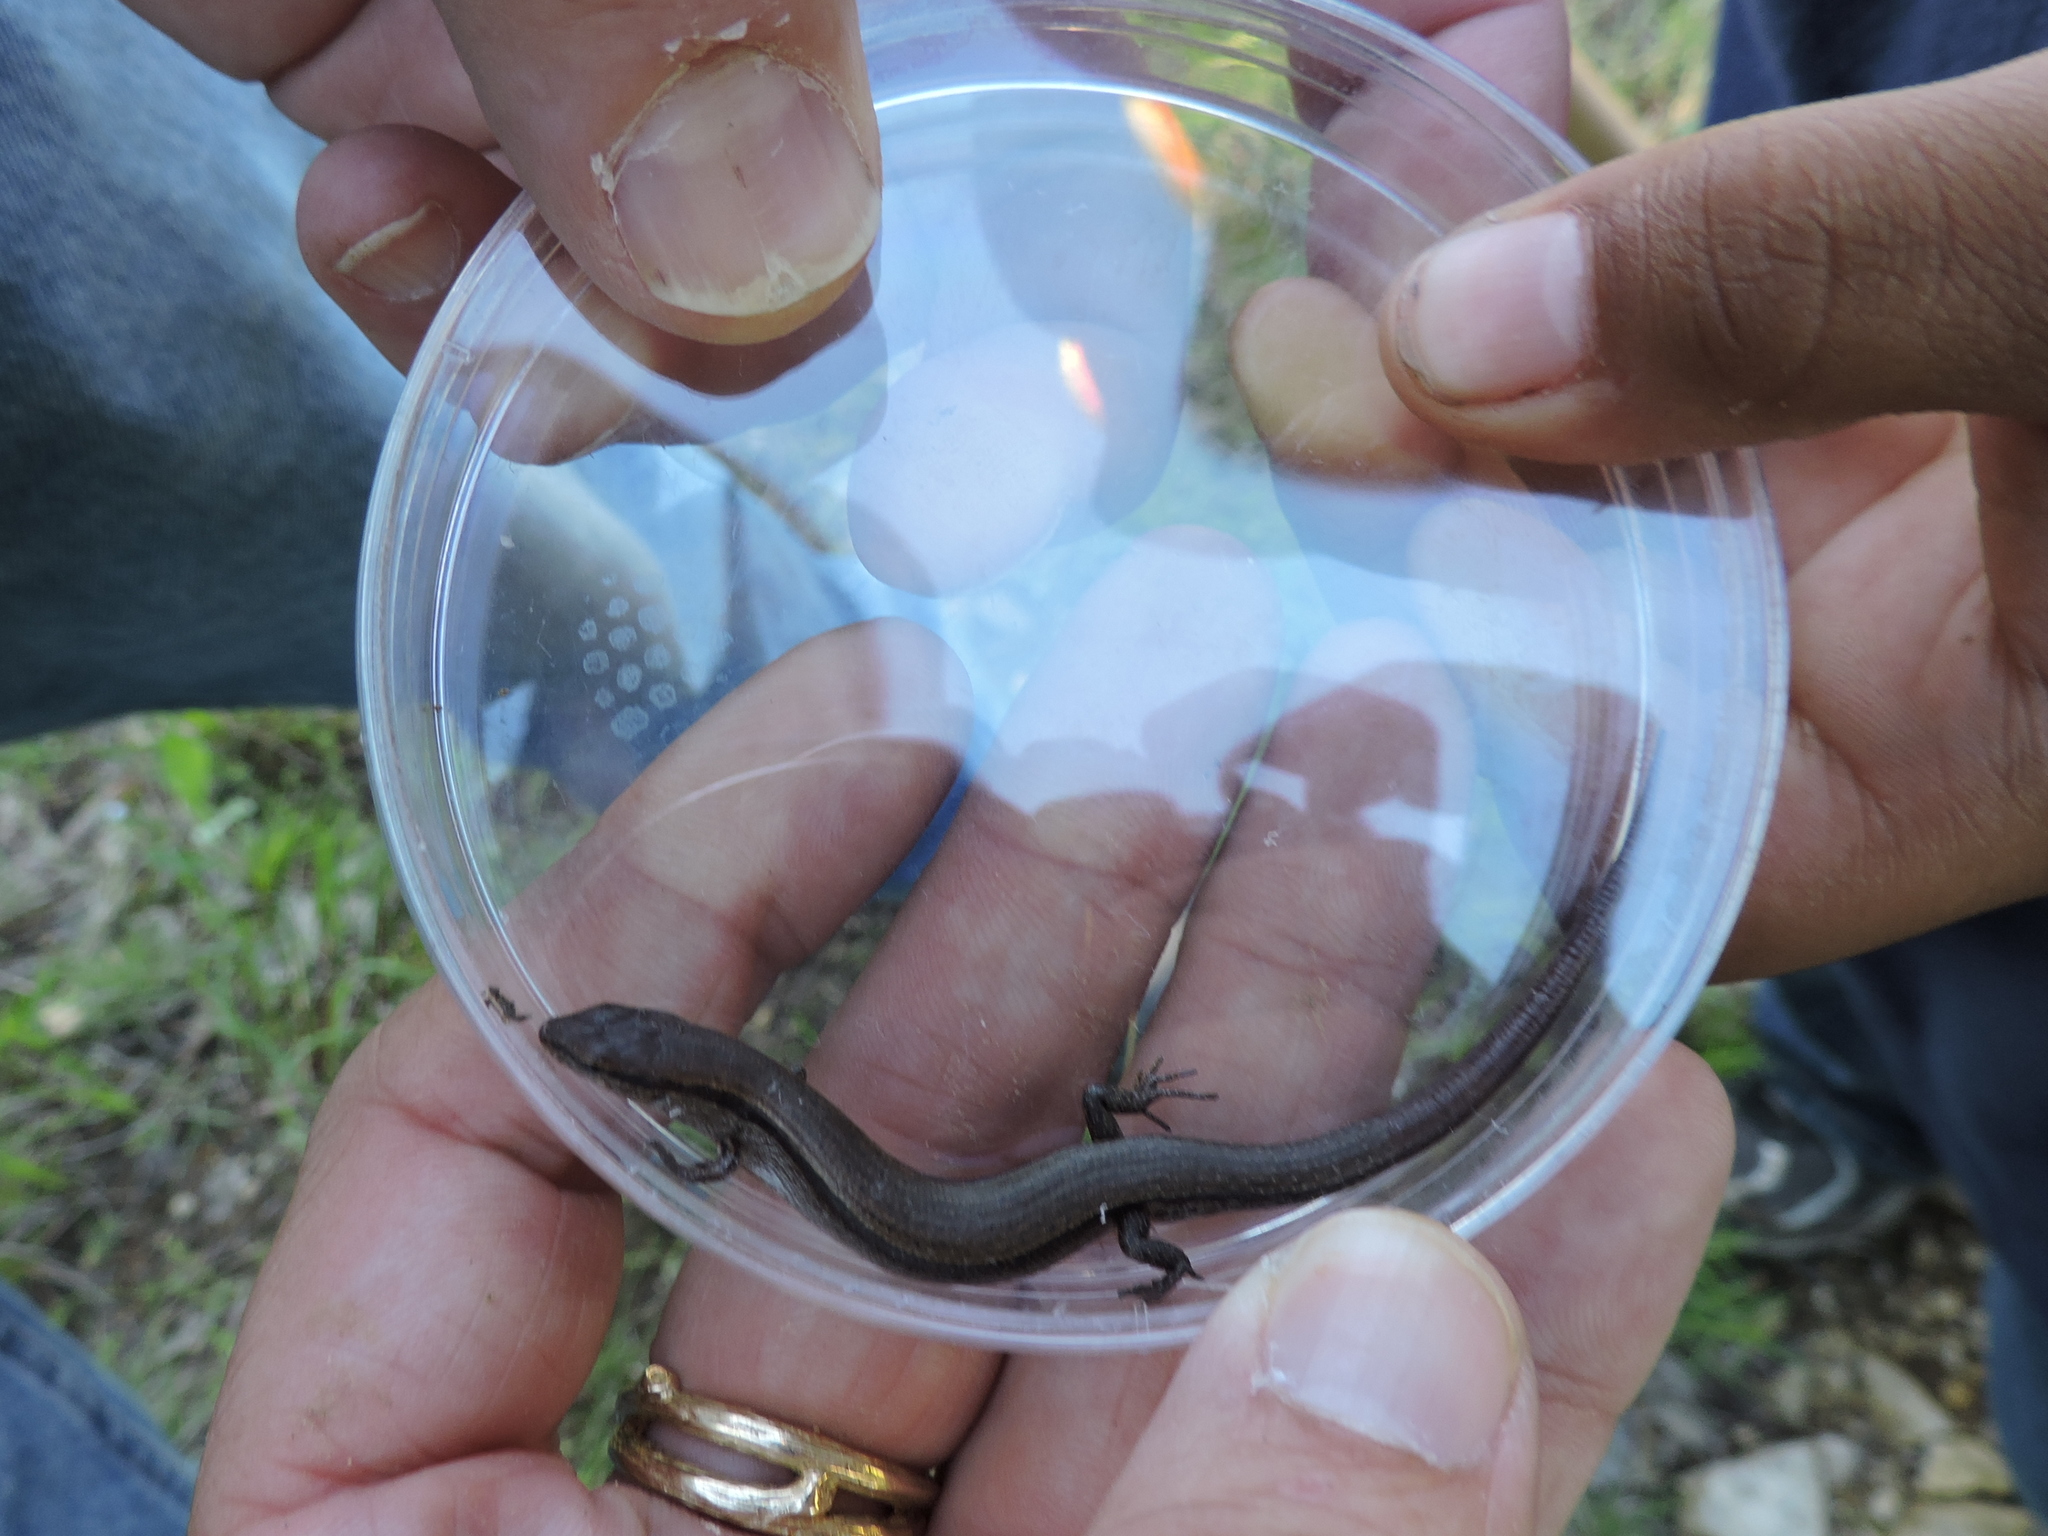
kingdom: Animalia
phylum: Chordata
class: Squamata
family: Scincidae
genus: Scincella
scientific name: Scincella lateralis
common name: Ground skink
